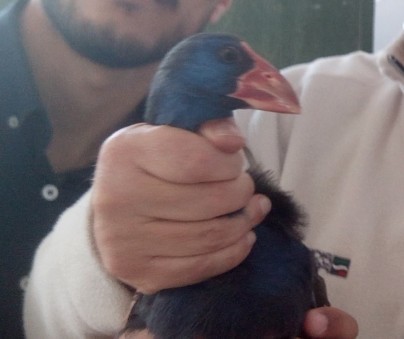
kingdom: Animalia
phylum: Chordata
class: Aves
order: Gruiformes
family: Rallidae
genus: Porphyrio
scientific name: Porphyrio porphyrio
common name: Purple swamphen
